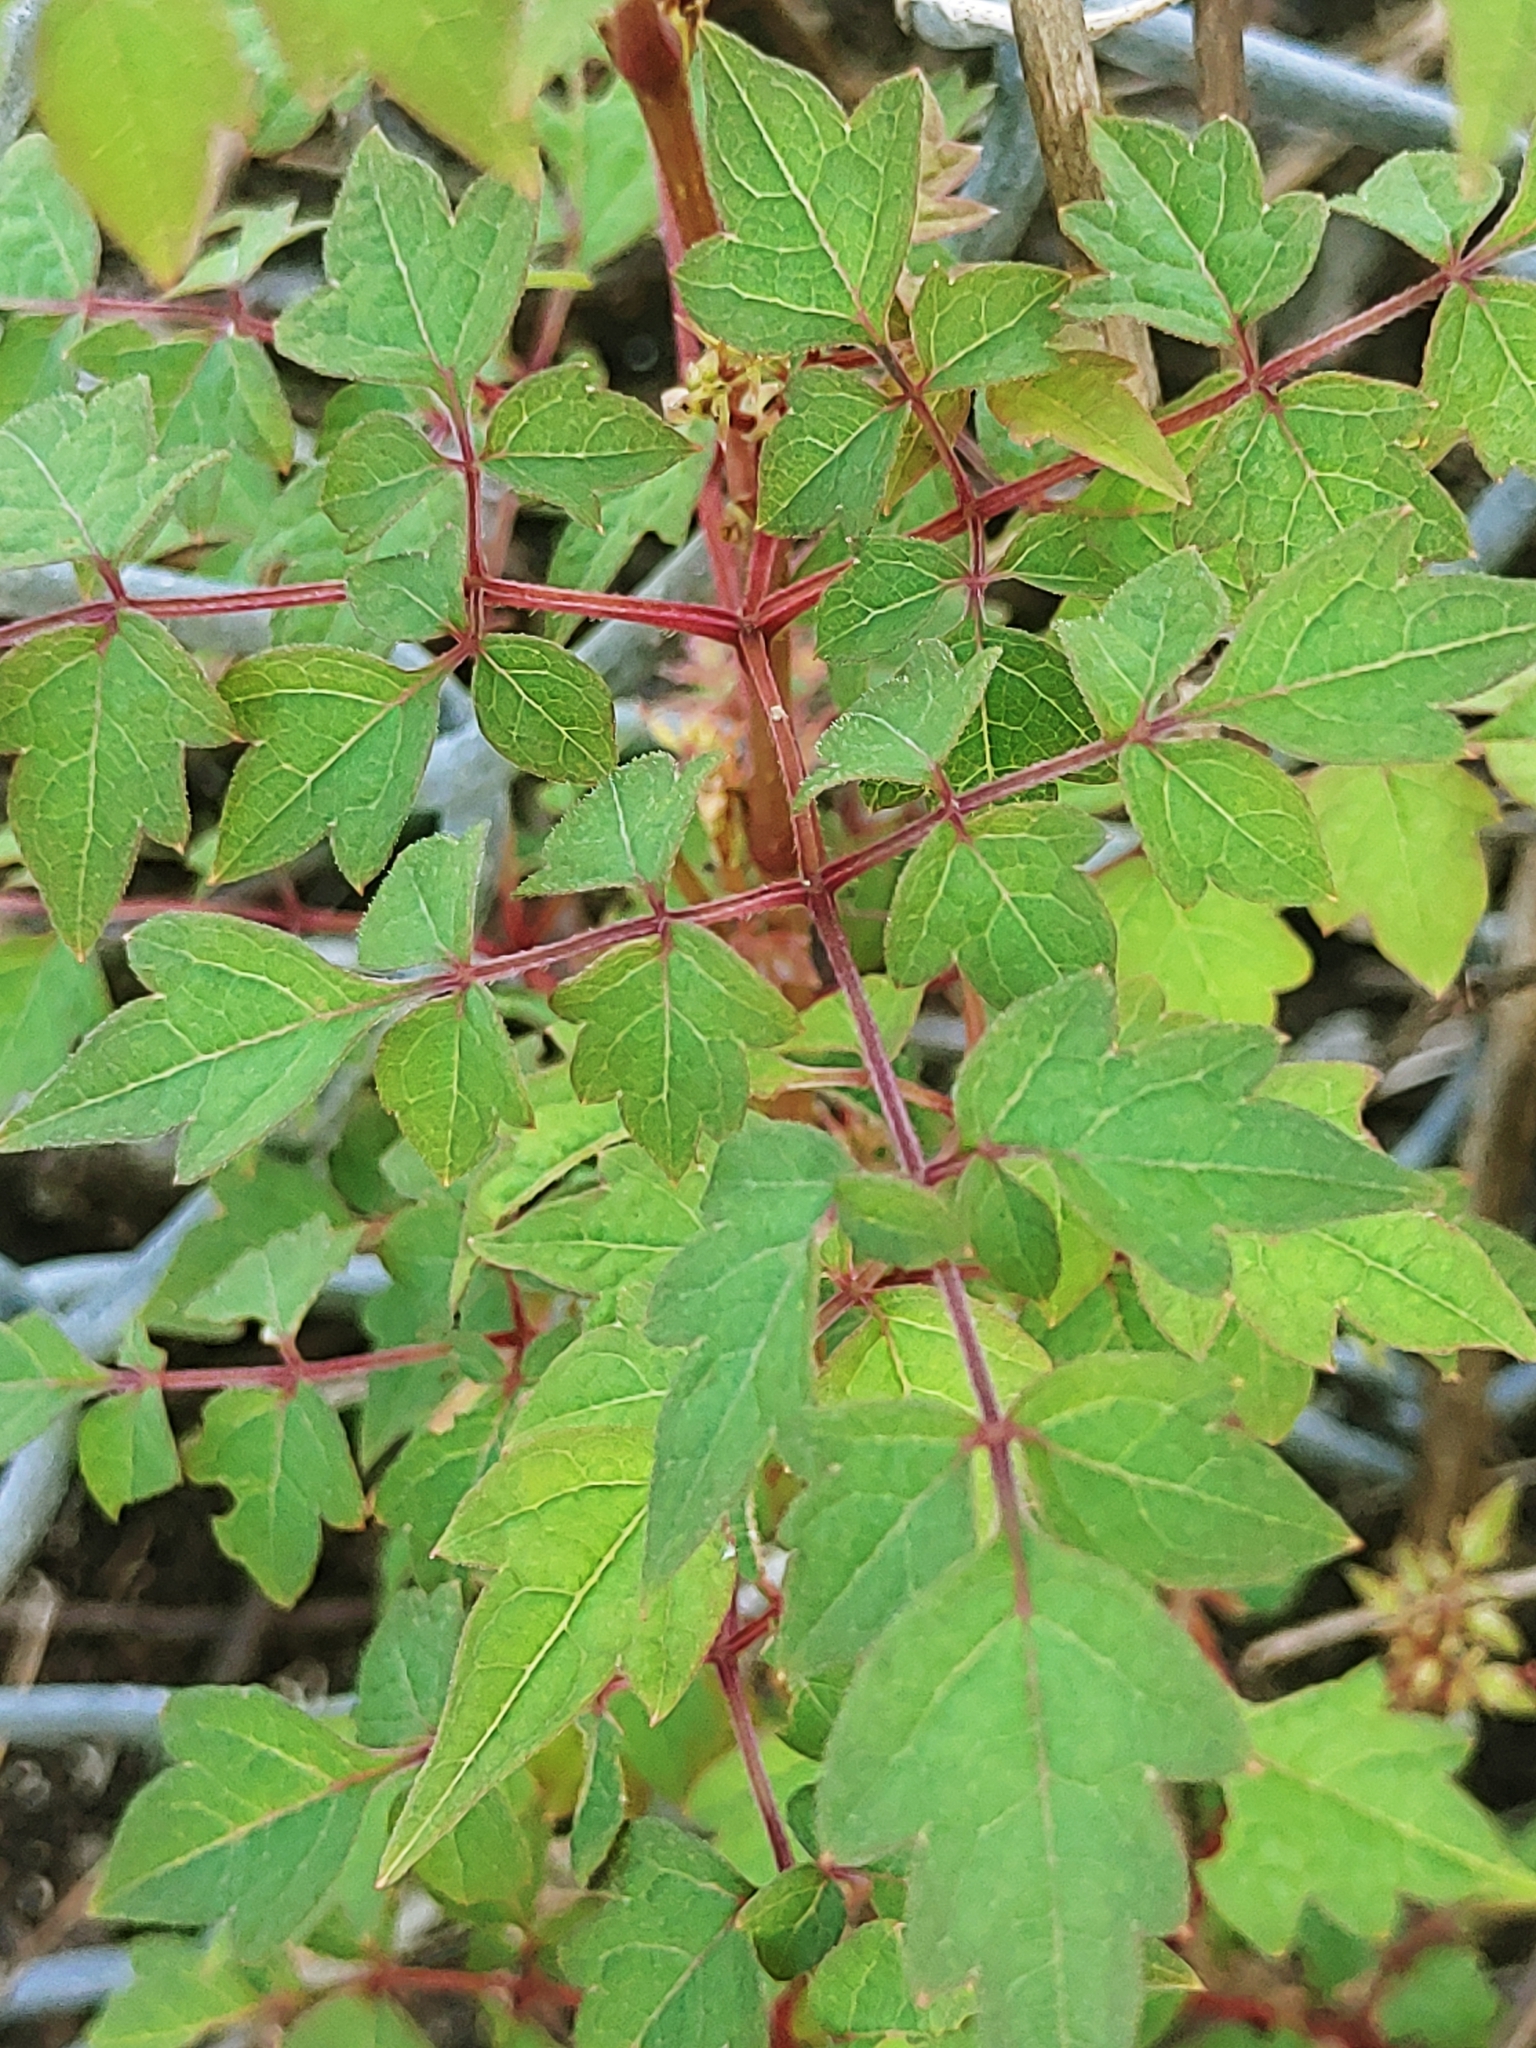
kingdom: Plantae
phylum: Tracheophyta
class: Magnoliopsida
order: Vitales
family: Vitaceae
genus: Nekemias
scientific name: Nekemias arborea
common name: Peppervine
